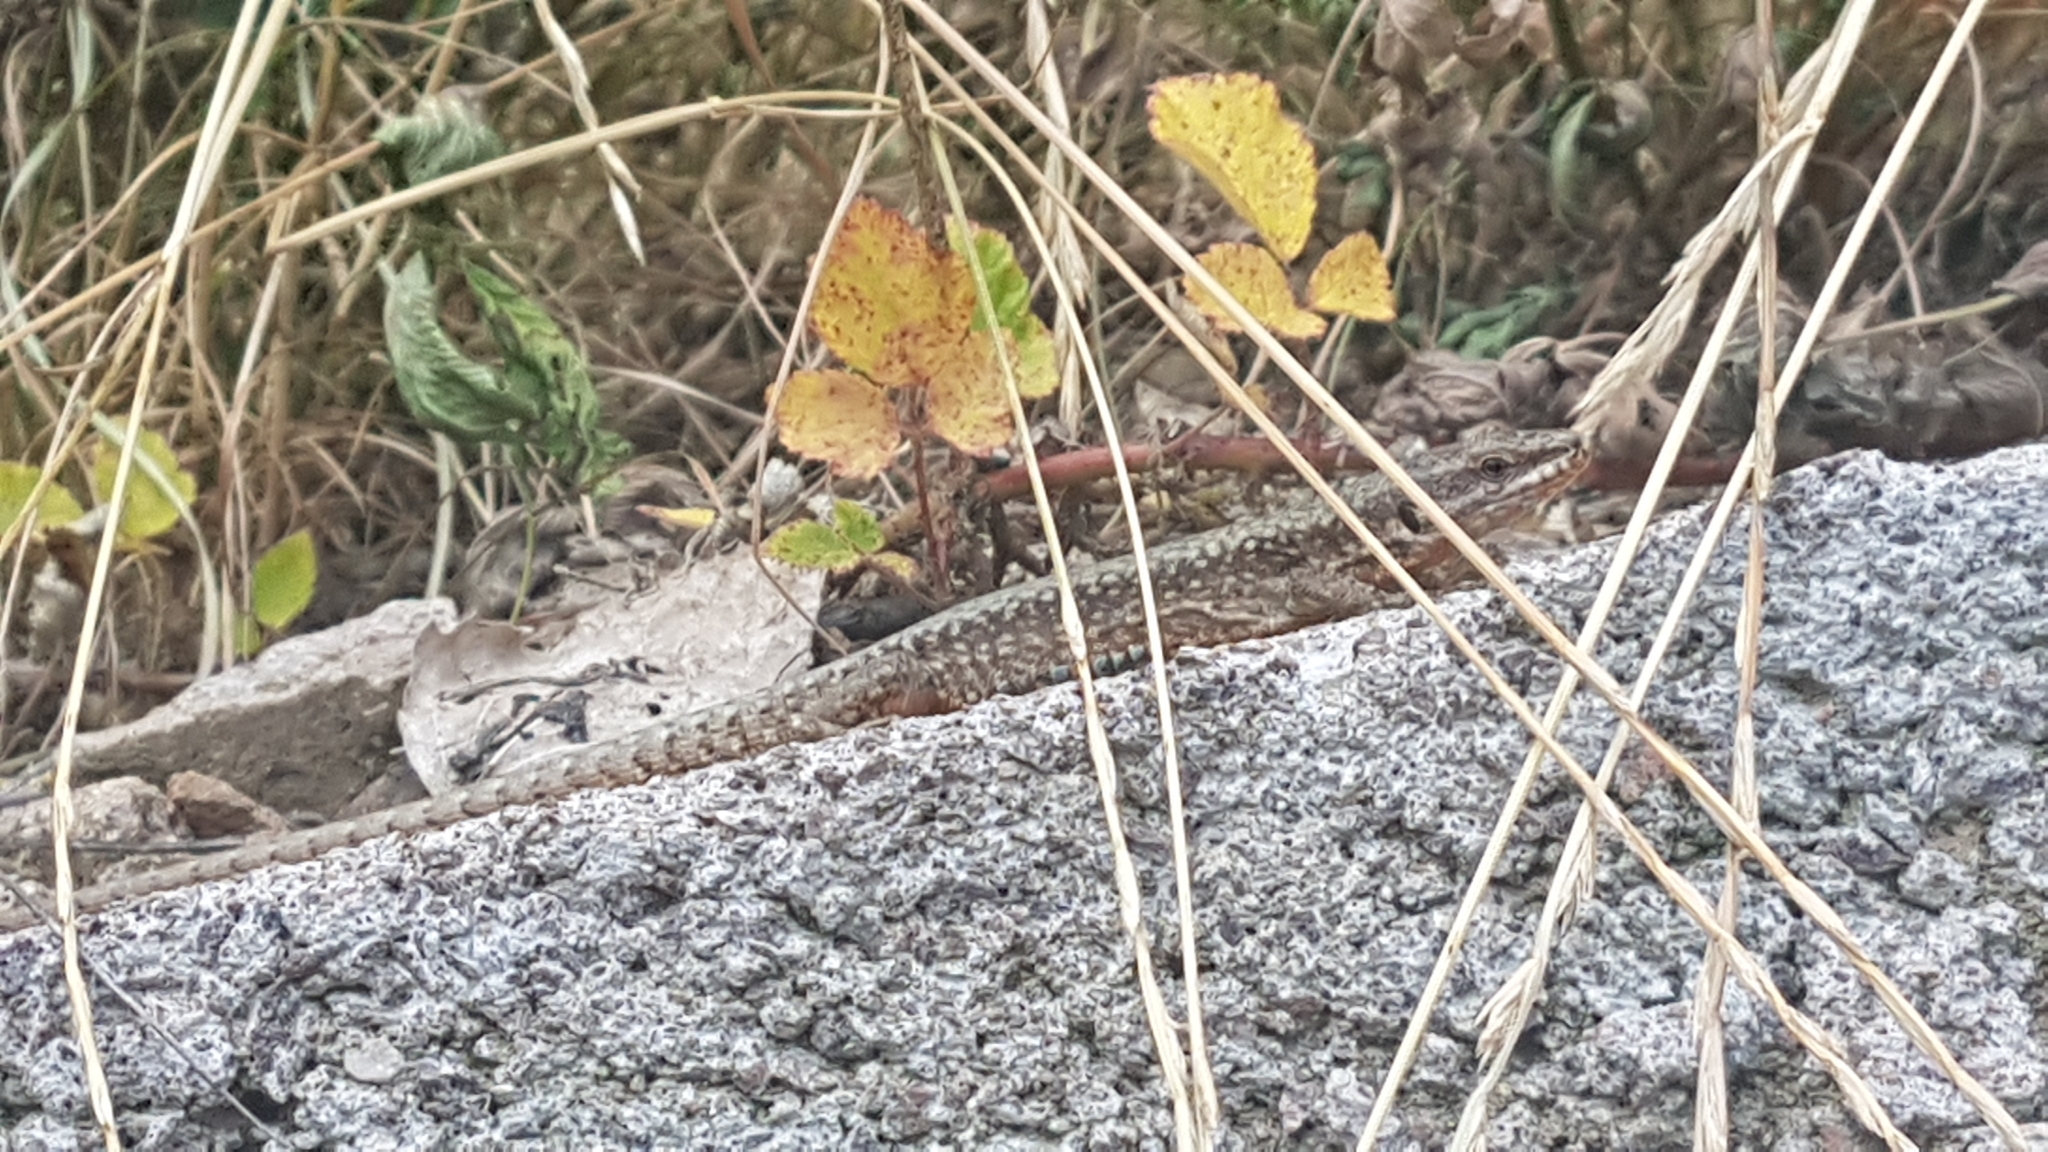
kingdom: Animalia
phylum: Chordata
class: Squamata
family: Lacertidae
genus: Podarcis
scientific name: Podarcis muralis
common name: Common wall lizard
